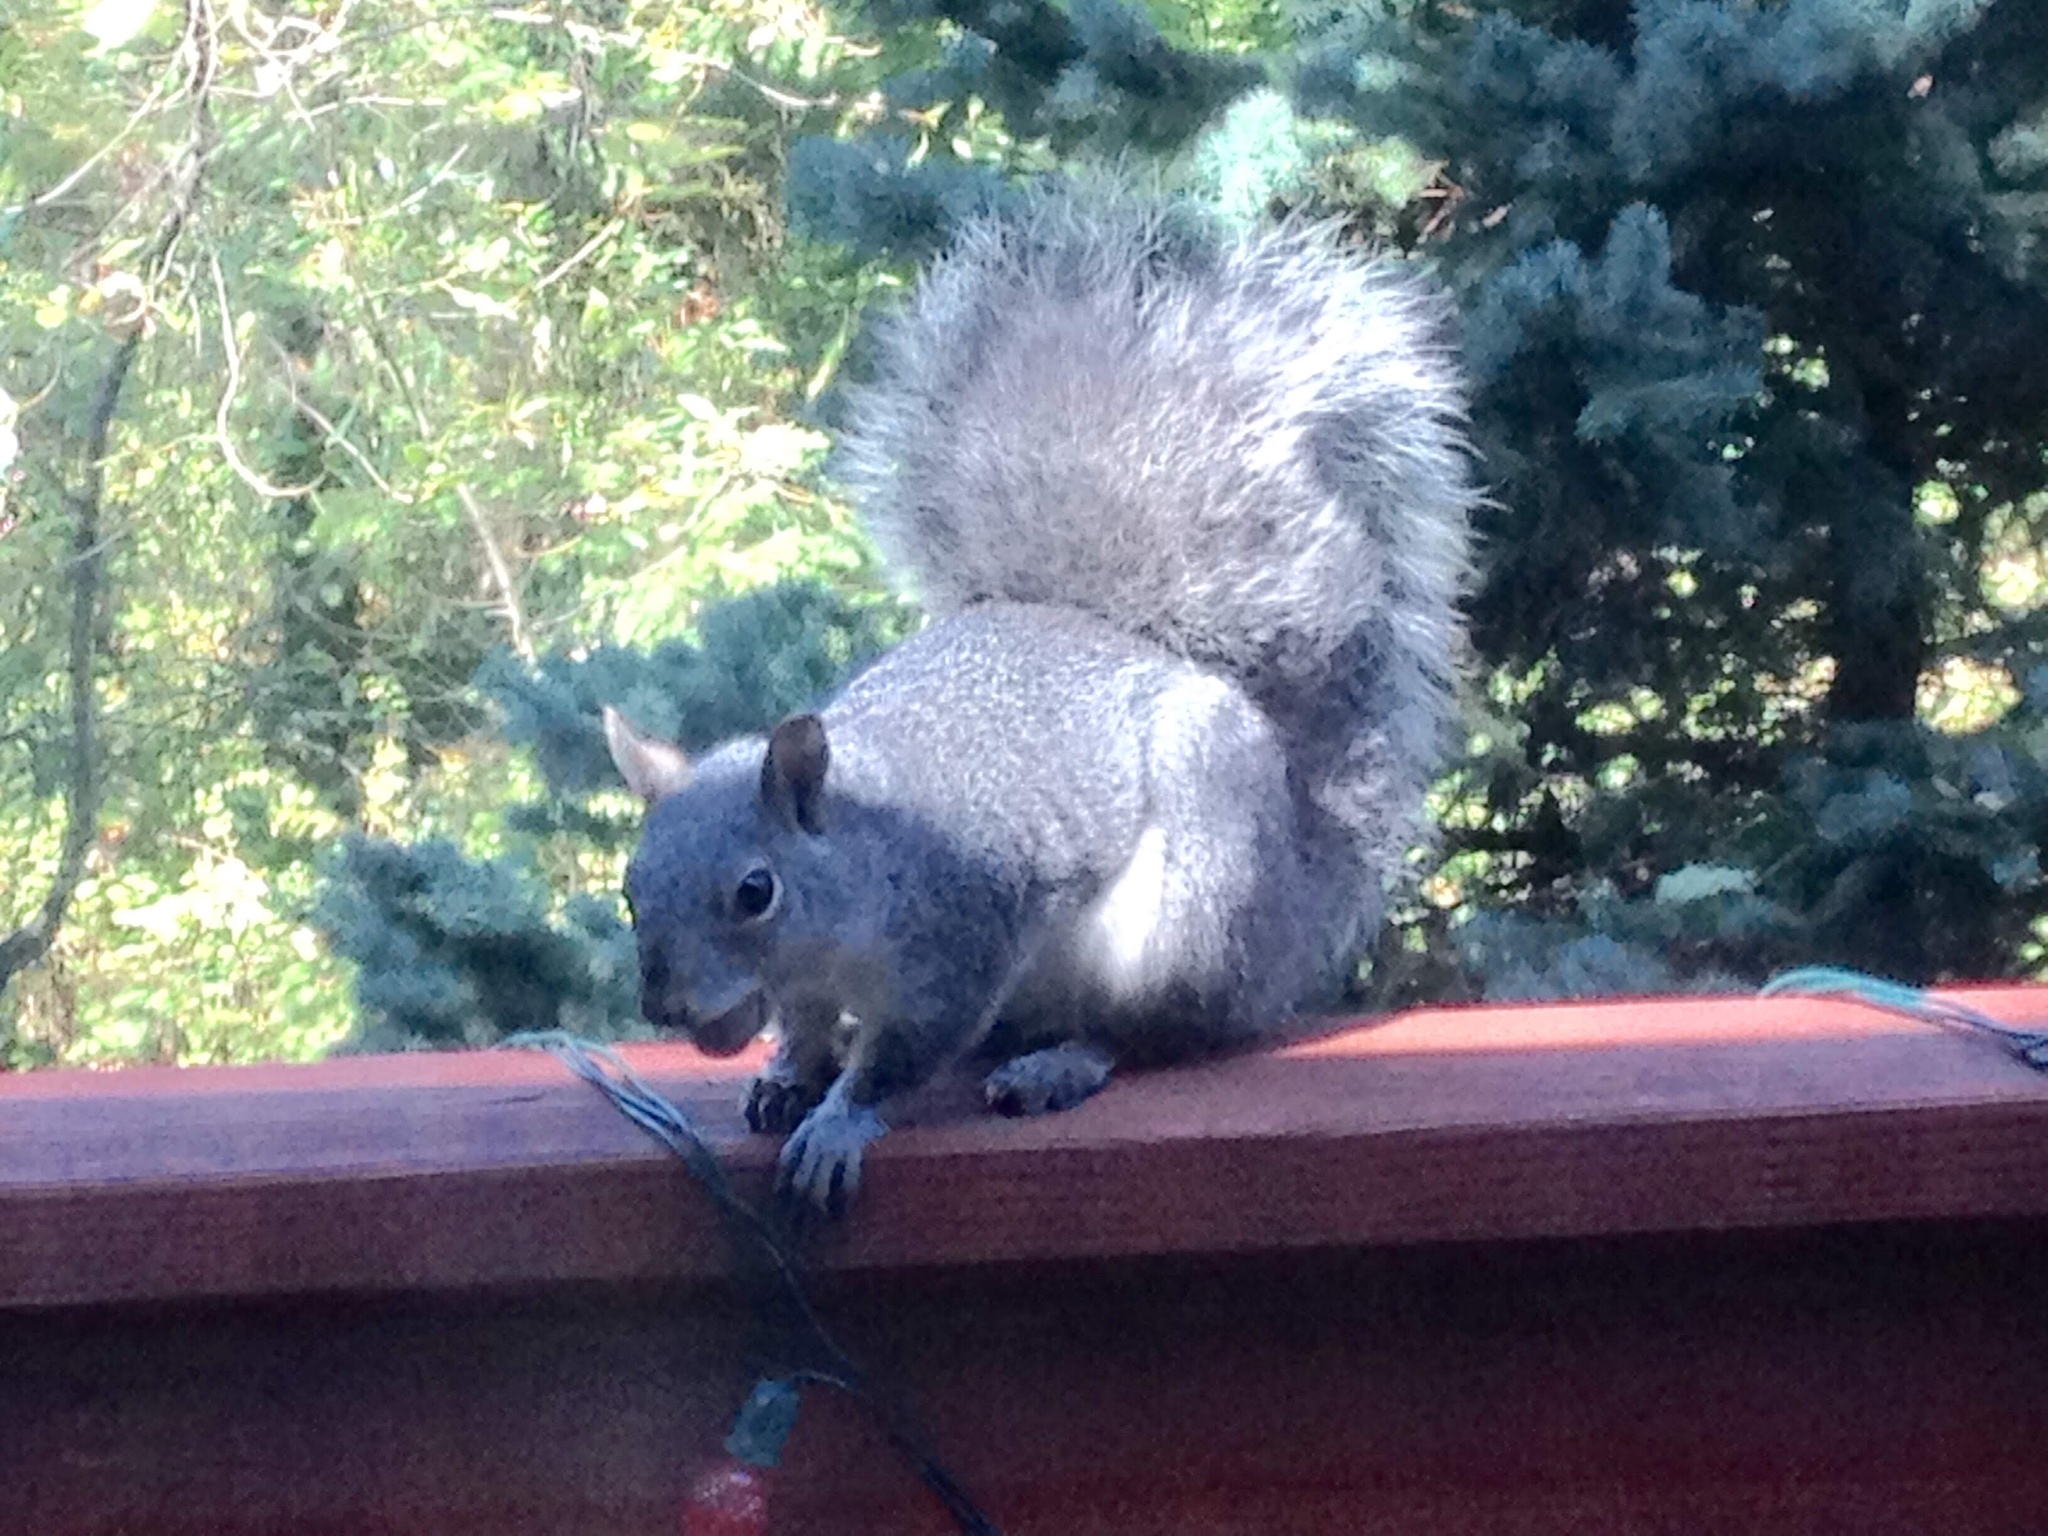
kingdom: Animalia
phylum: Chordata
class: Mammalia
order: Rodentia
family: Sciuridae
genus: Sciurus
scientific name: Sciurus griseus
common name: Western gray squirrel
